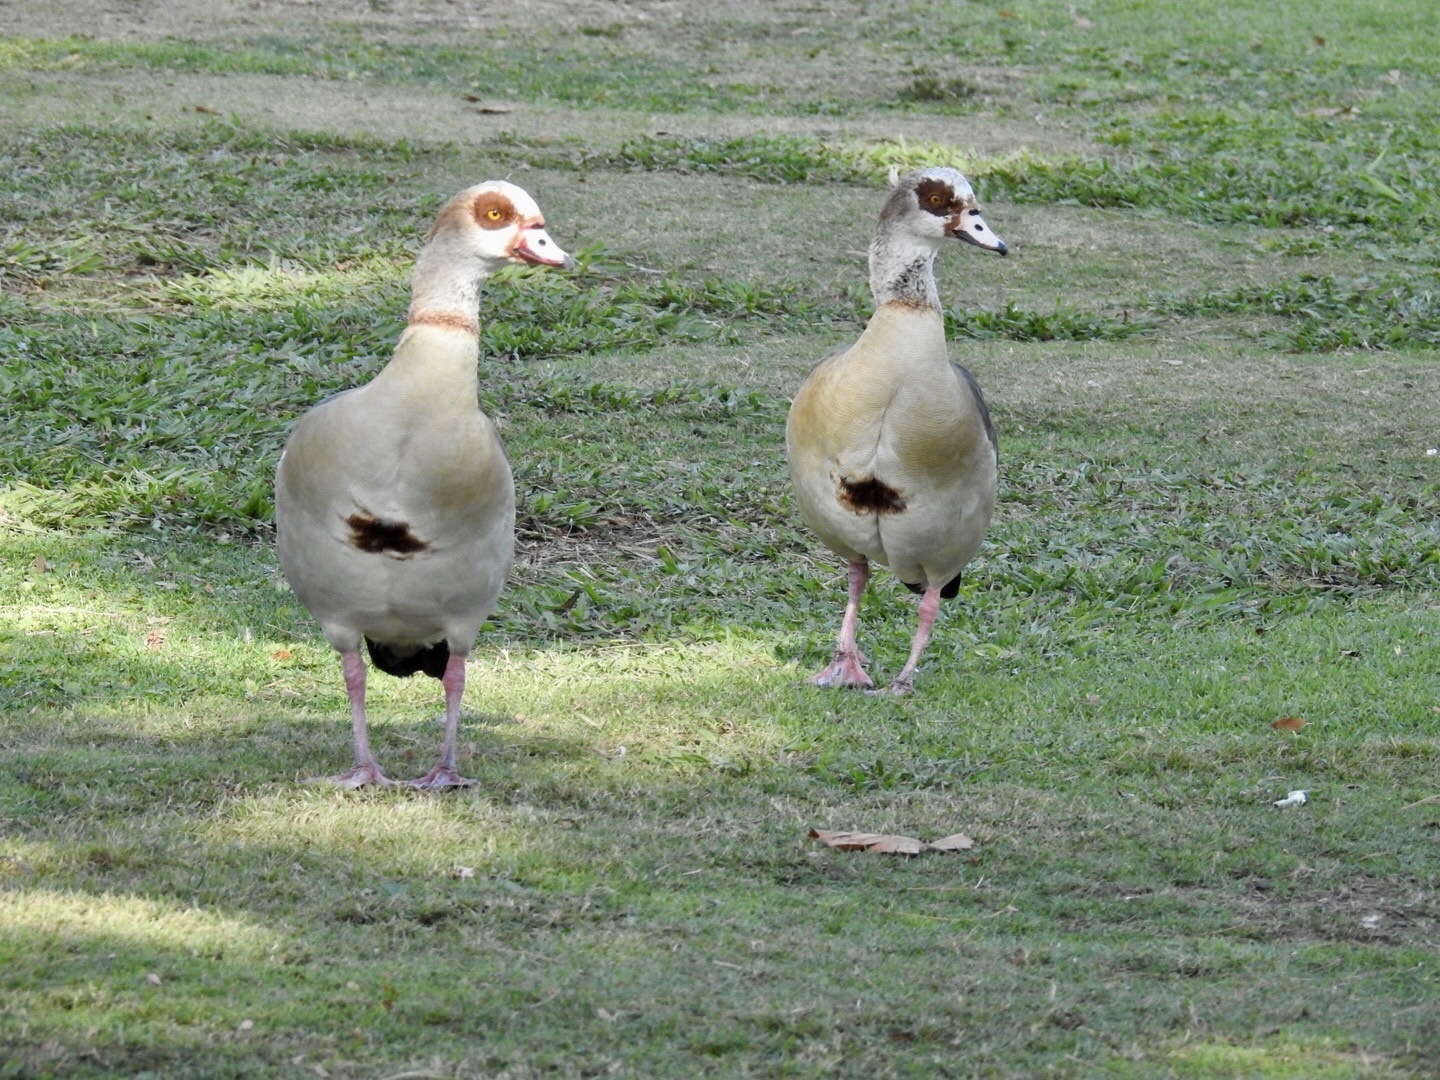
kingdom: Animalia
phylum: Chordata
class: Aves
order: Anseriformes
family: Anatidae
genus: Alopochen
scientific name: Alopochen aegyptiaca
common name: Egyptian goose
